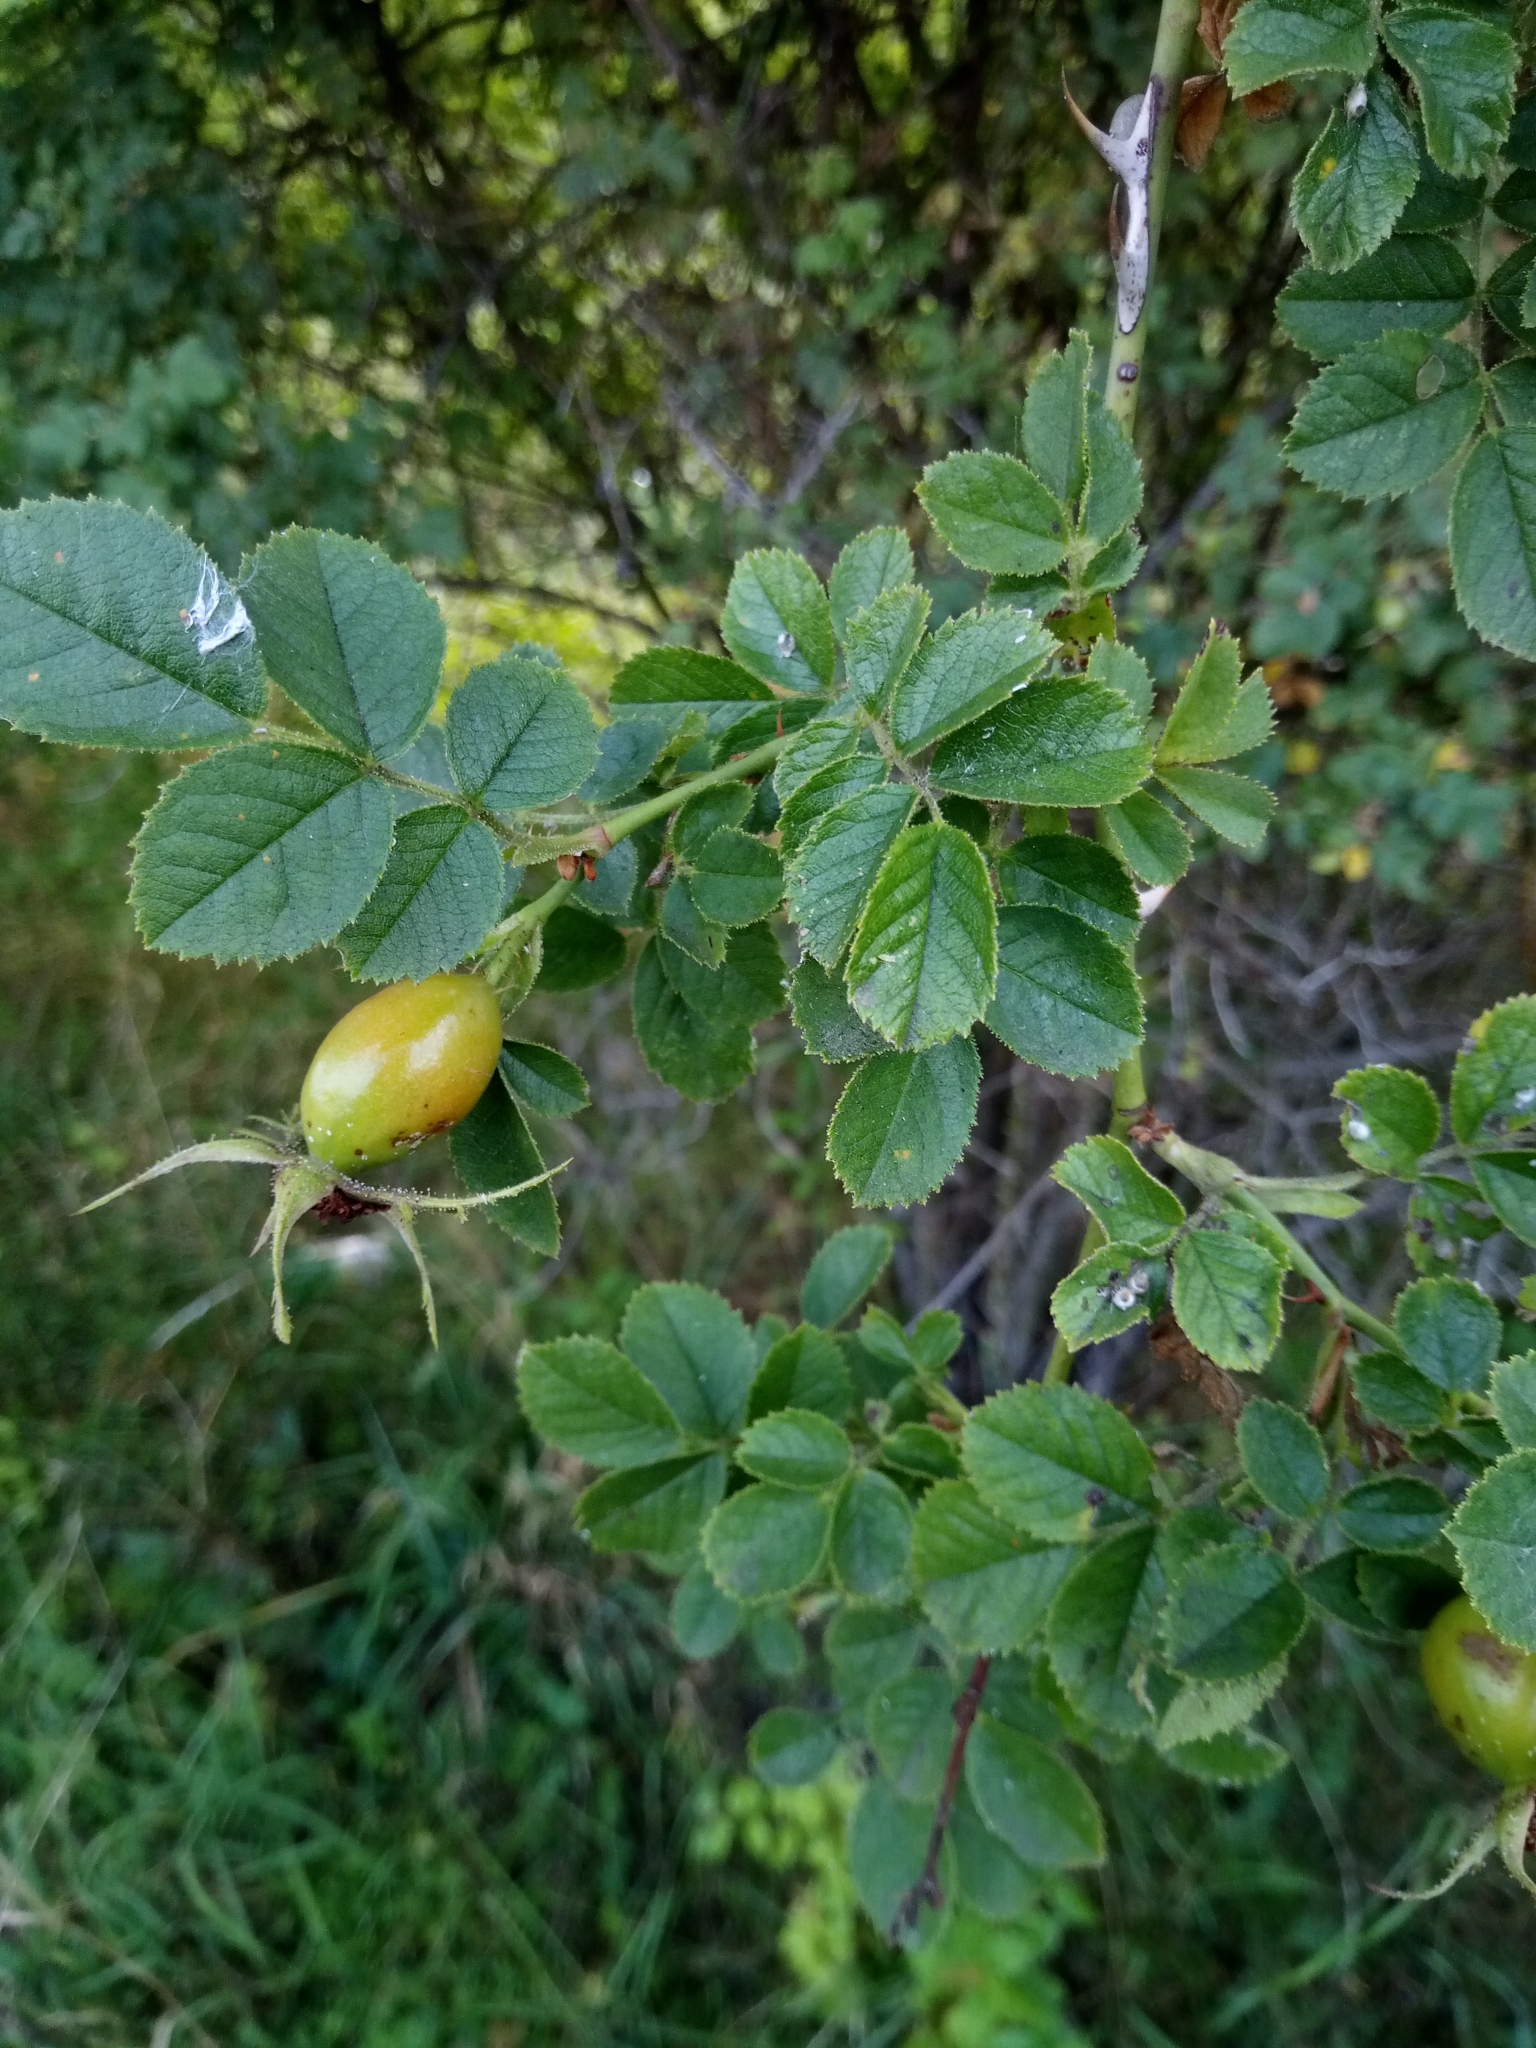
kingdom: Plantae
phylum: Tracheophyta
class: Magnoliopsida
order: Rosales
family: Rosaceae
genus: Rosa
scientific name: Rosa rubiginosa
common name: Sweet-briar
